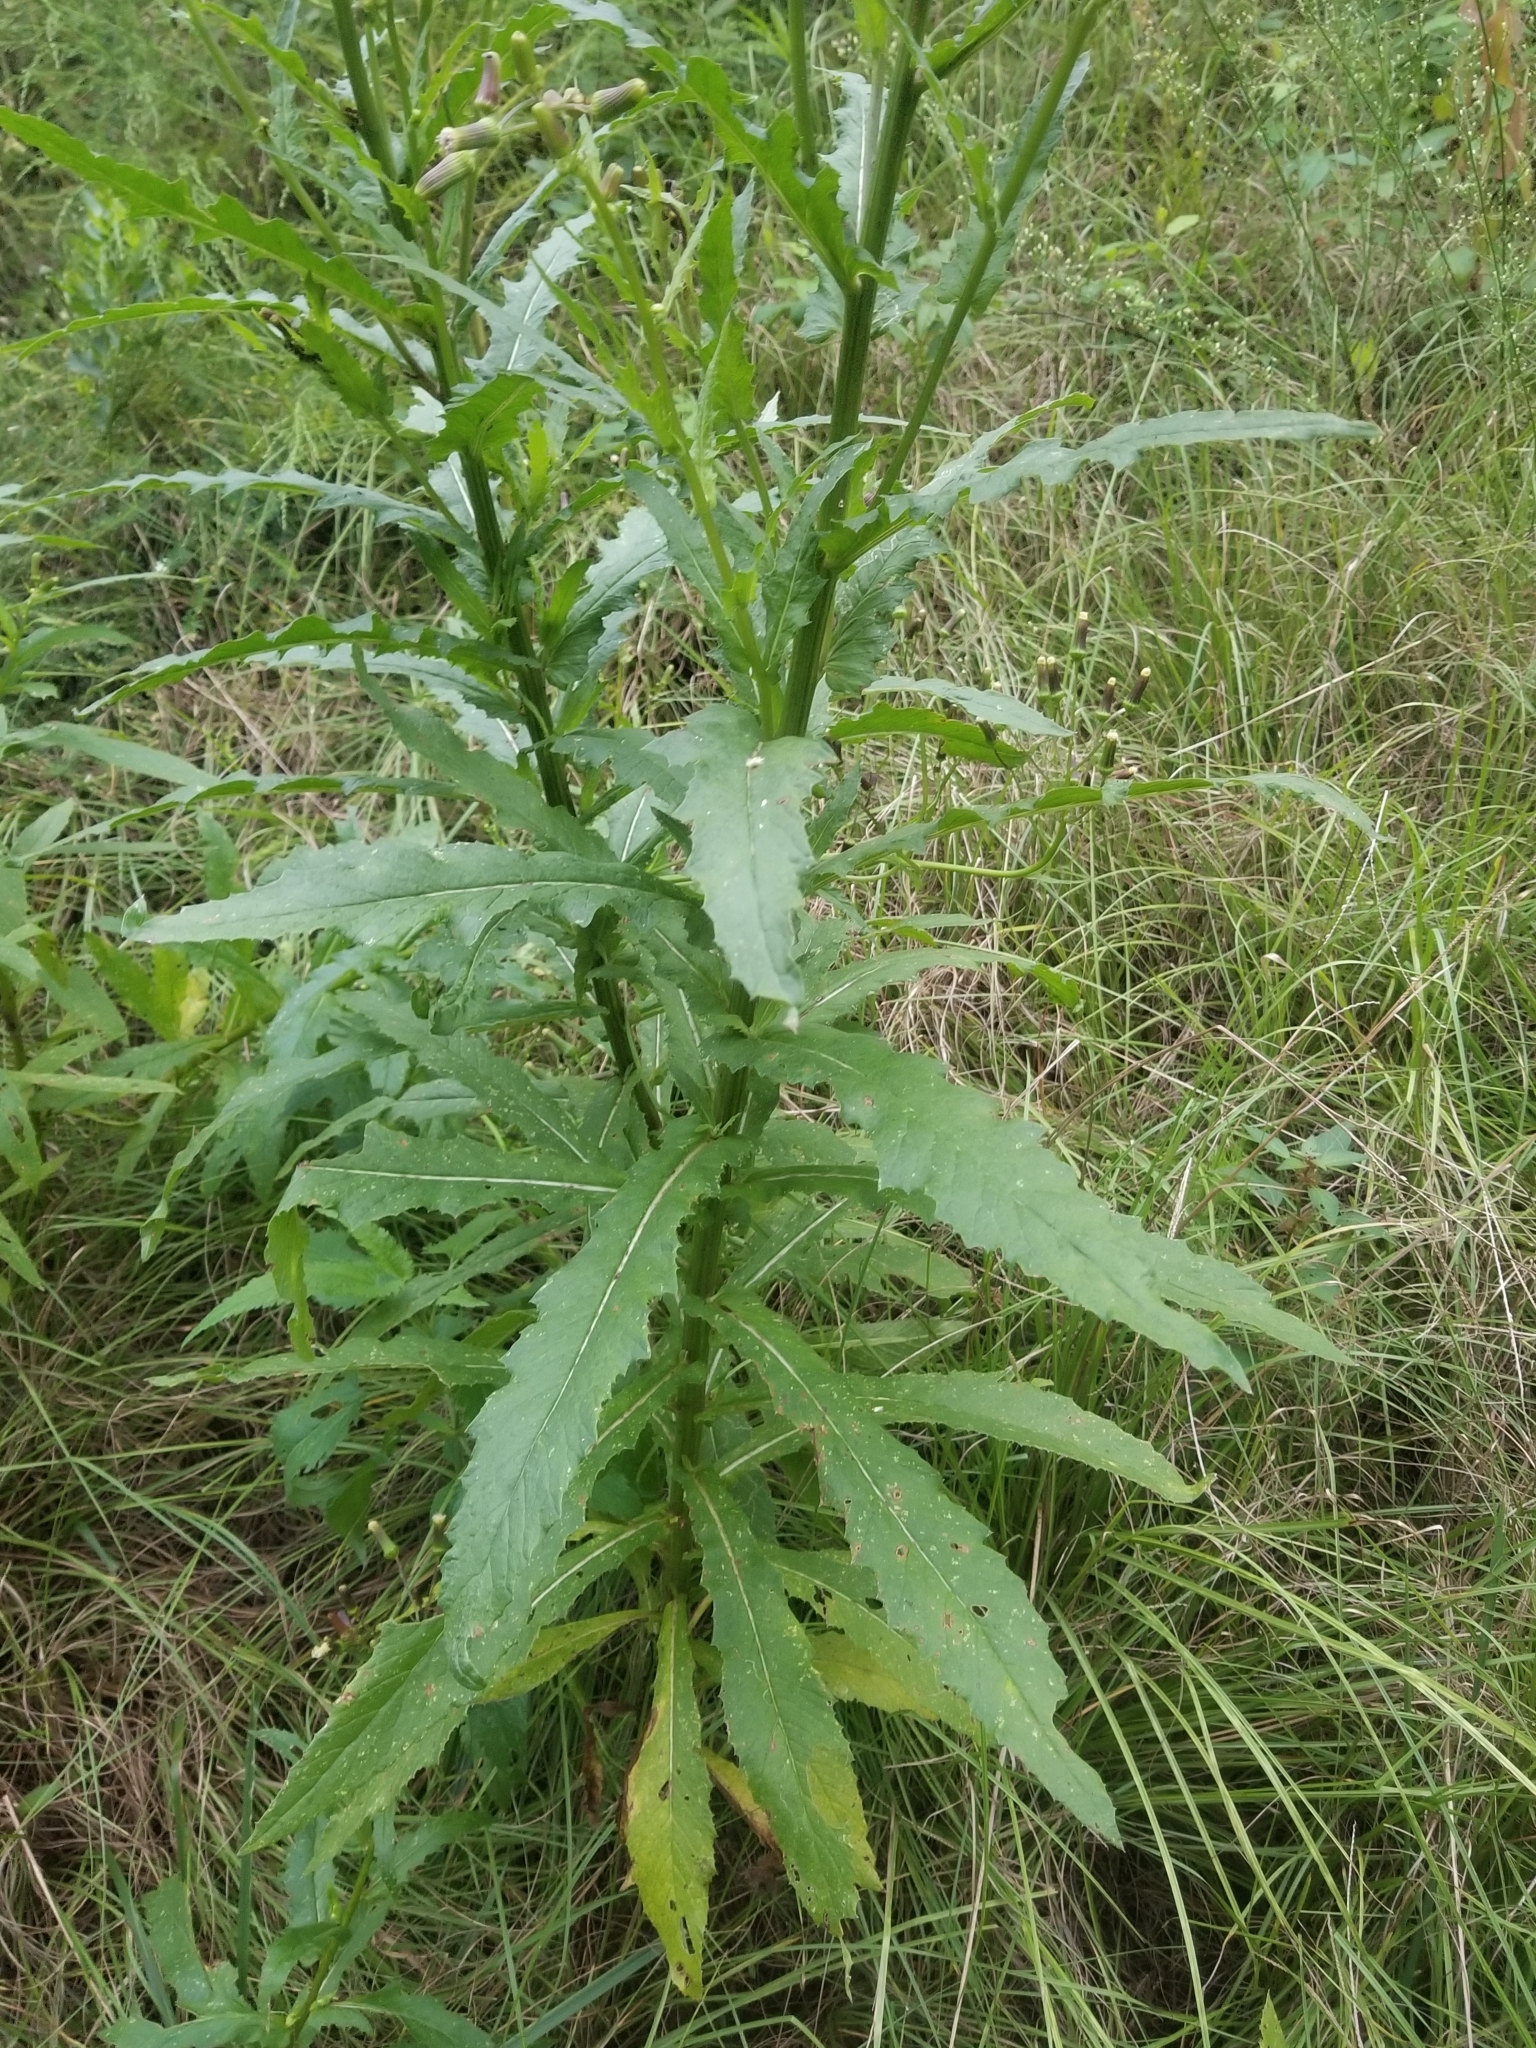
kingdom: Plantae
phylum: Tracheophyta
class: Magnoliopsida
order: Asterales
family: Asteraceae
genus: Erechtites
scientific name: Erechtites hieraciifolius
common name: American burnweed
